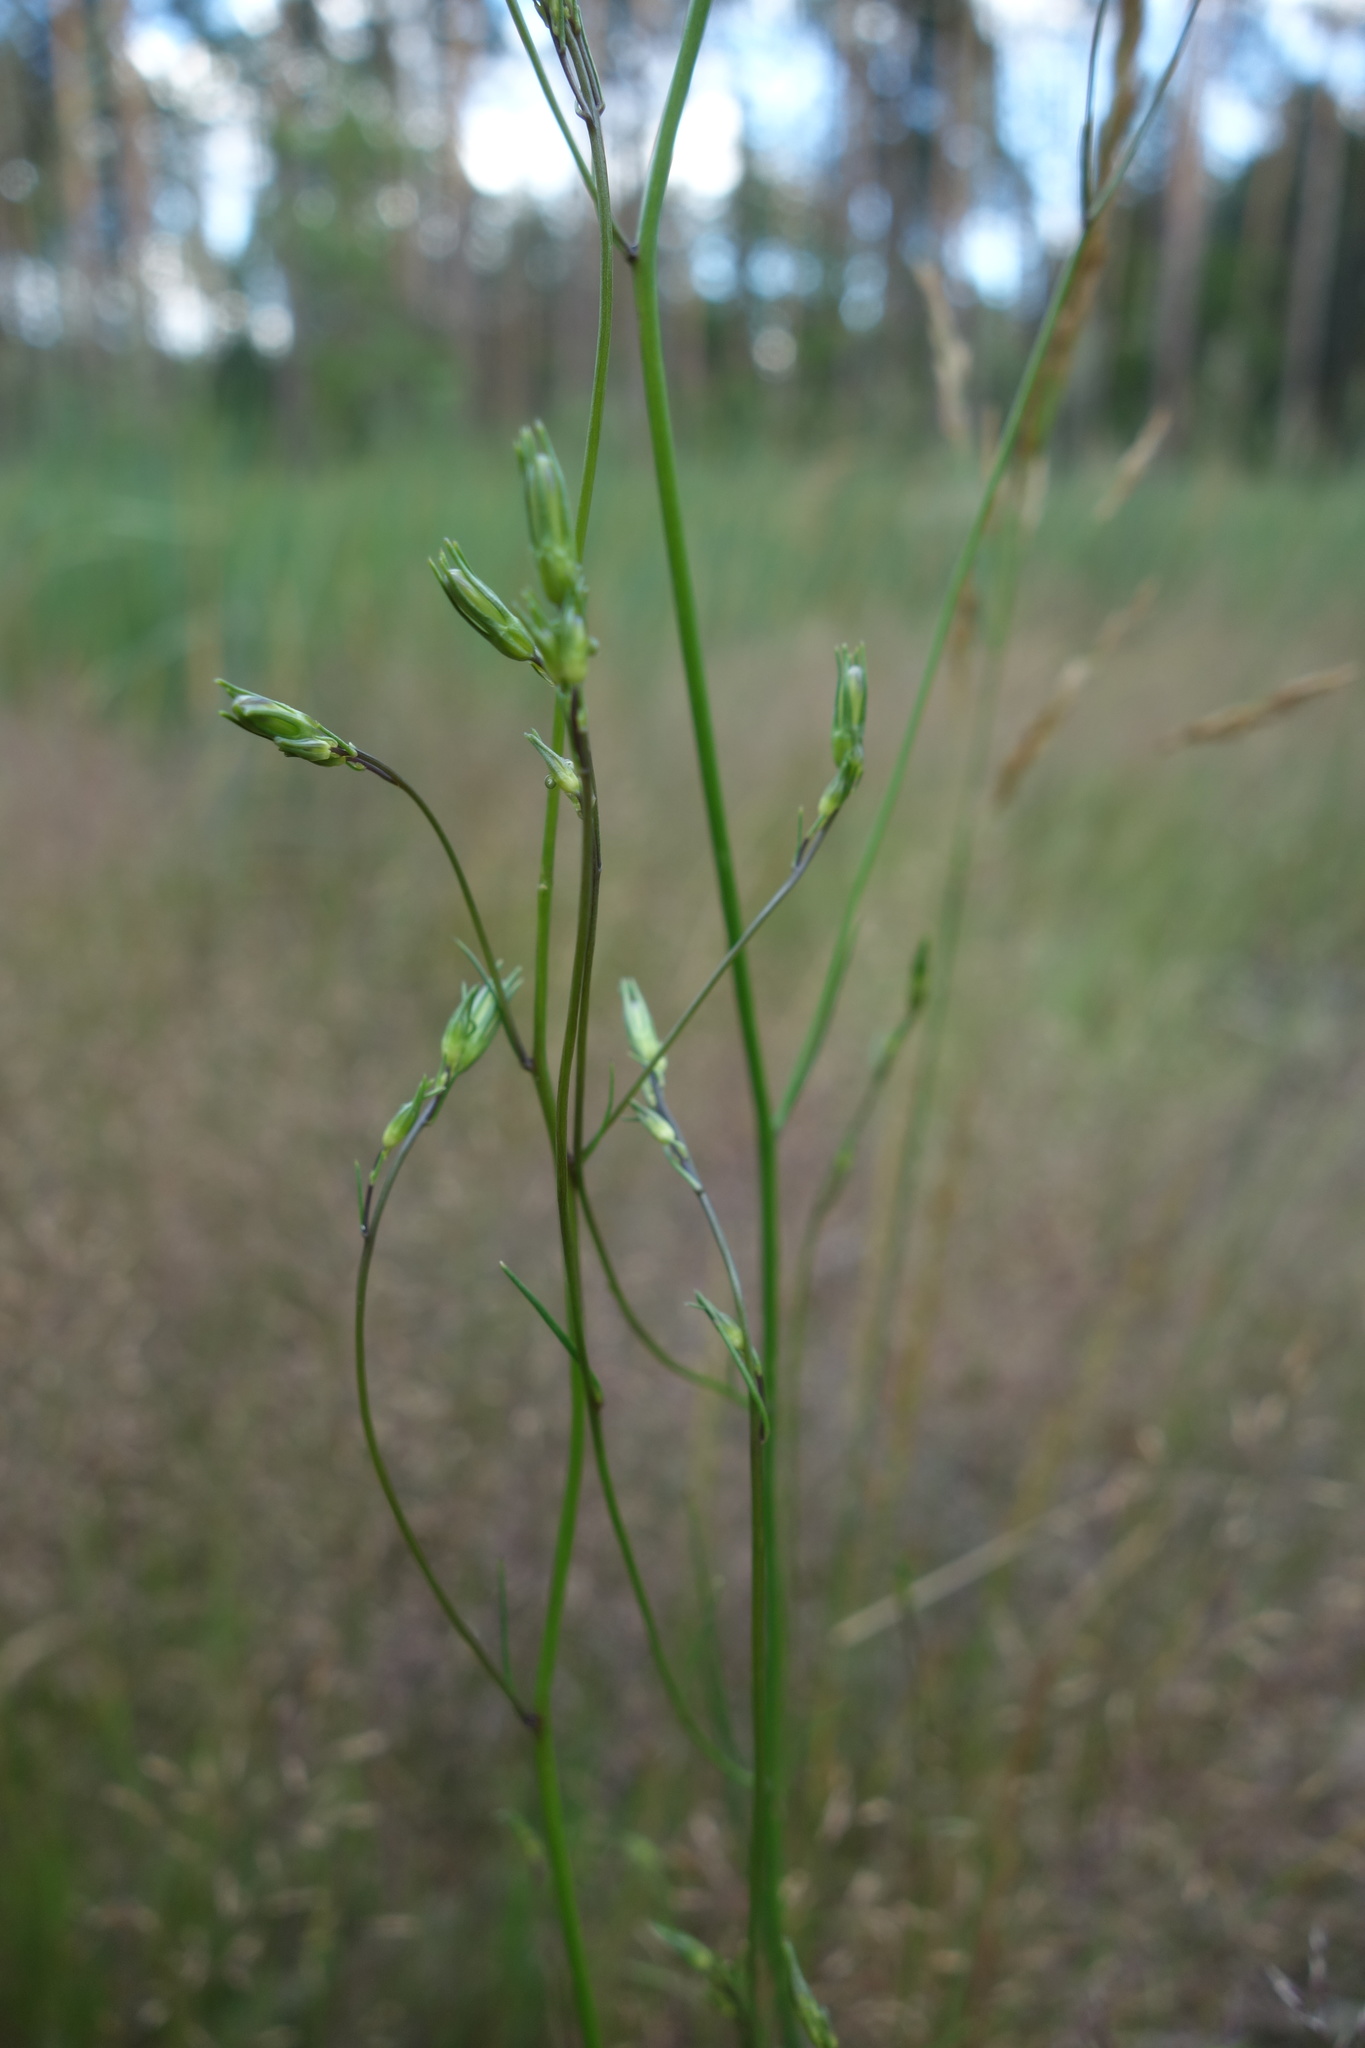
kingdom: Plantae
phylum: Tracheophyta
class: Magnoliopsida
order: Asterales
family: Campanulaceae
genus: Campanula
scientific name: Campanula rotundifolia
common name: Harebell
